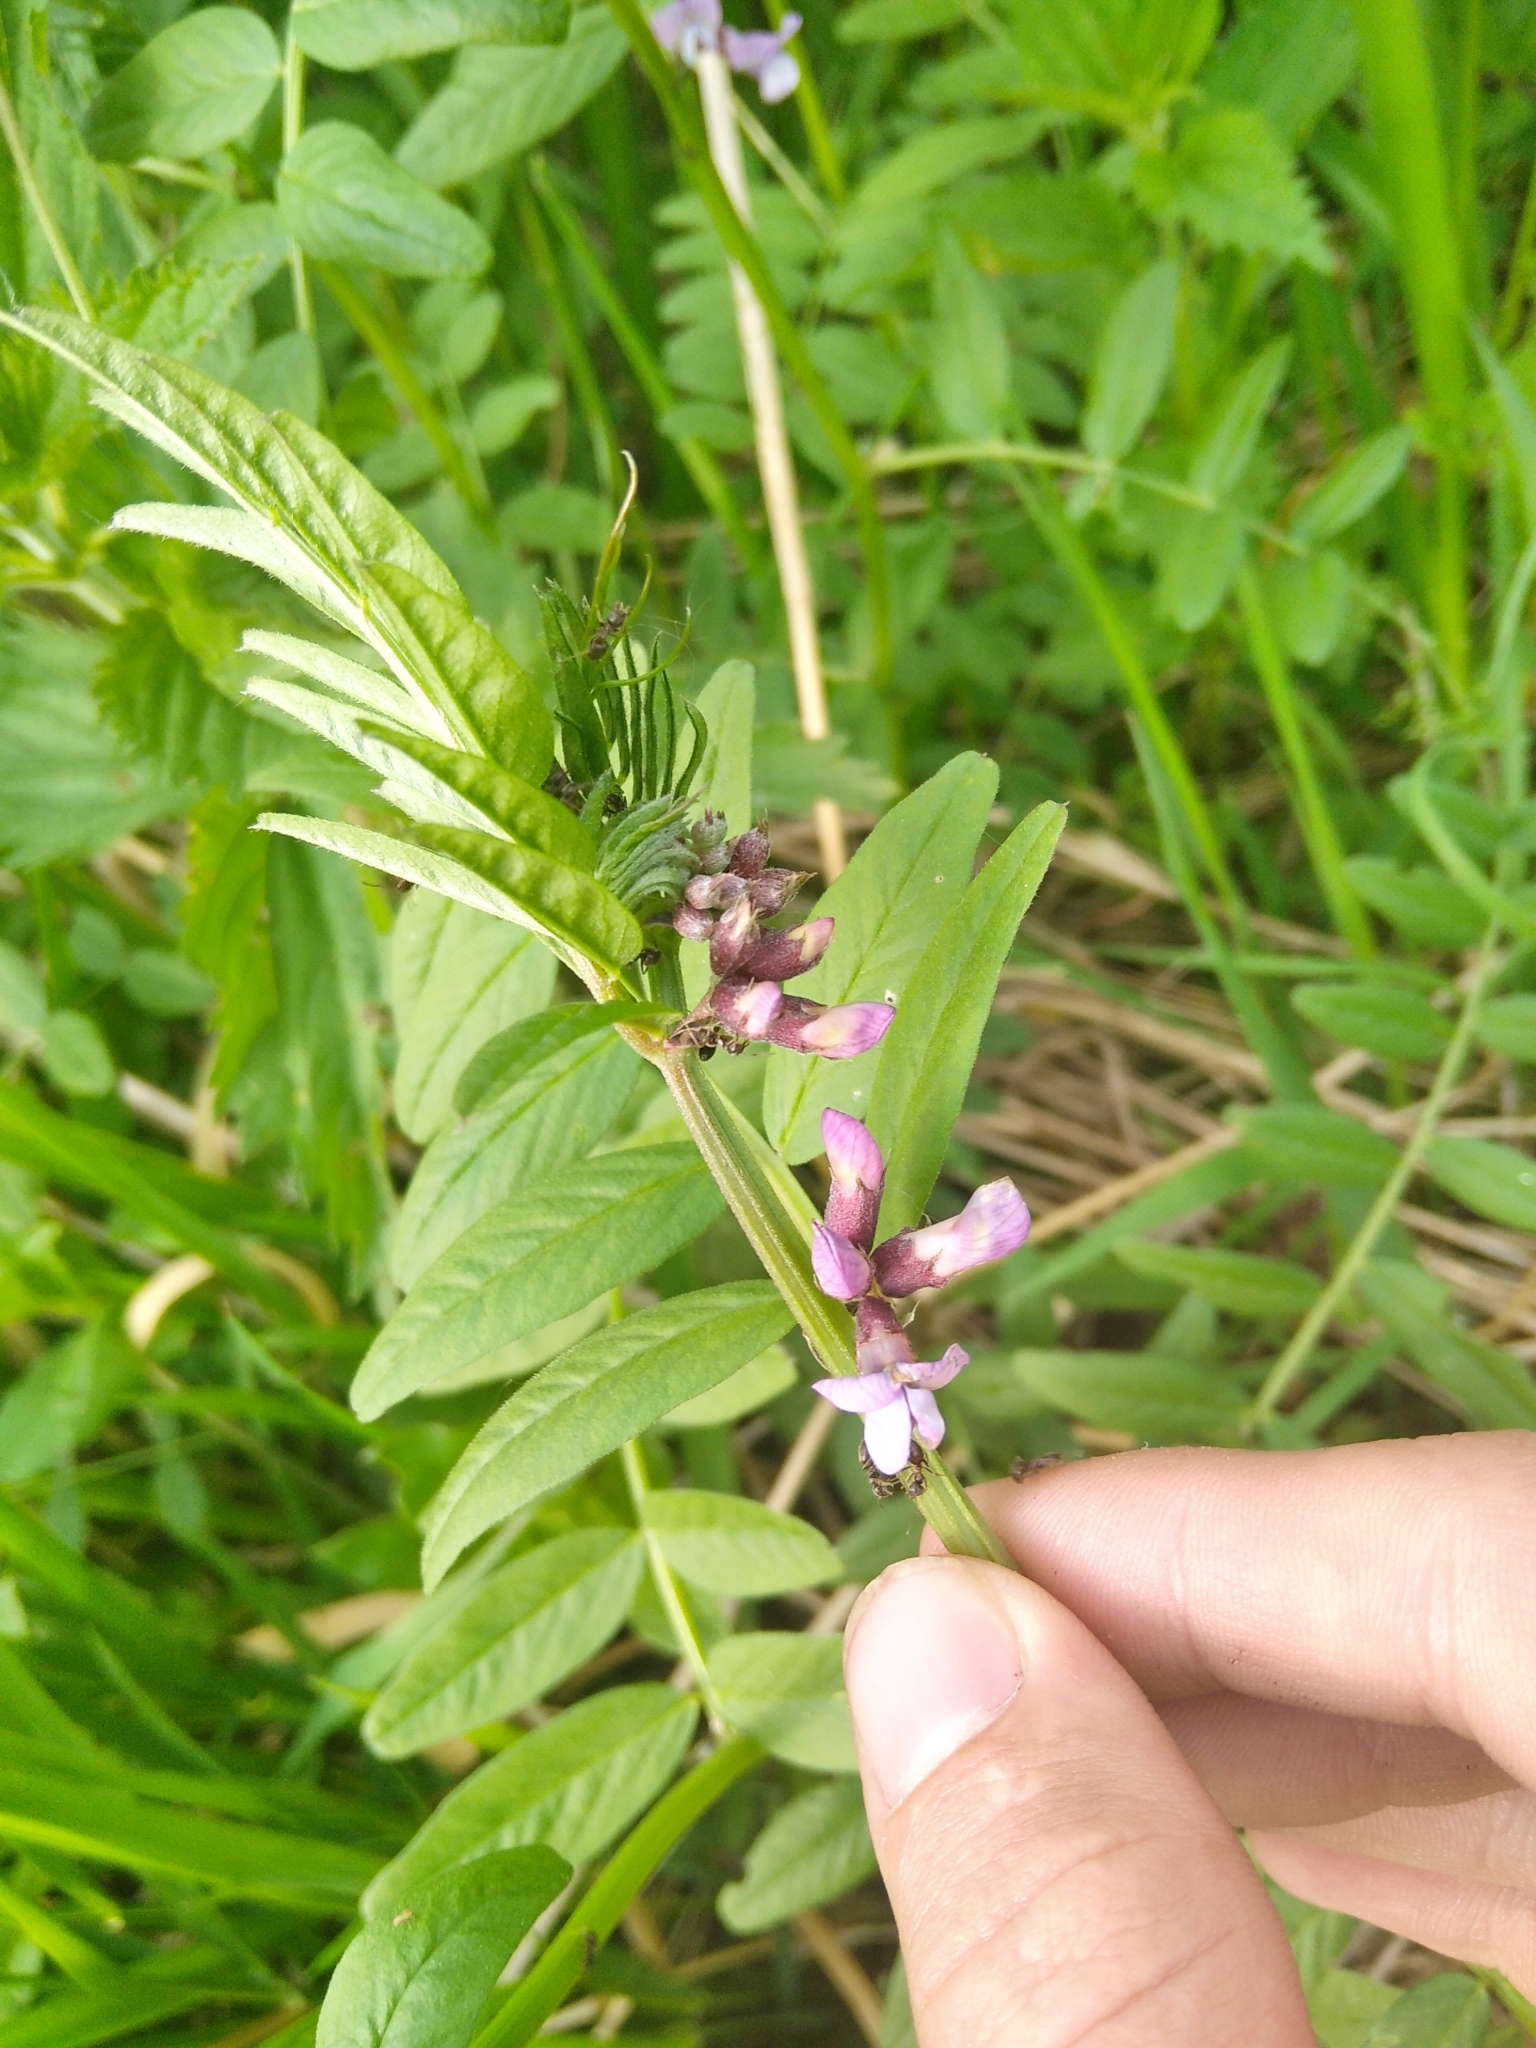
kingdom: Plantae
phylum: Tracheophyta
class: Magnoliopsida
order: Fabales
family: Fabaceae
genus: Vicia
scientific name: Vicia sepium
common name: Bush vetch
